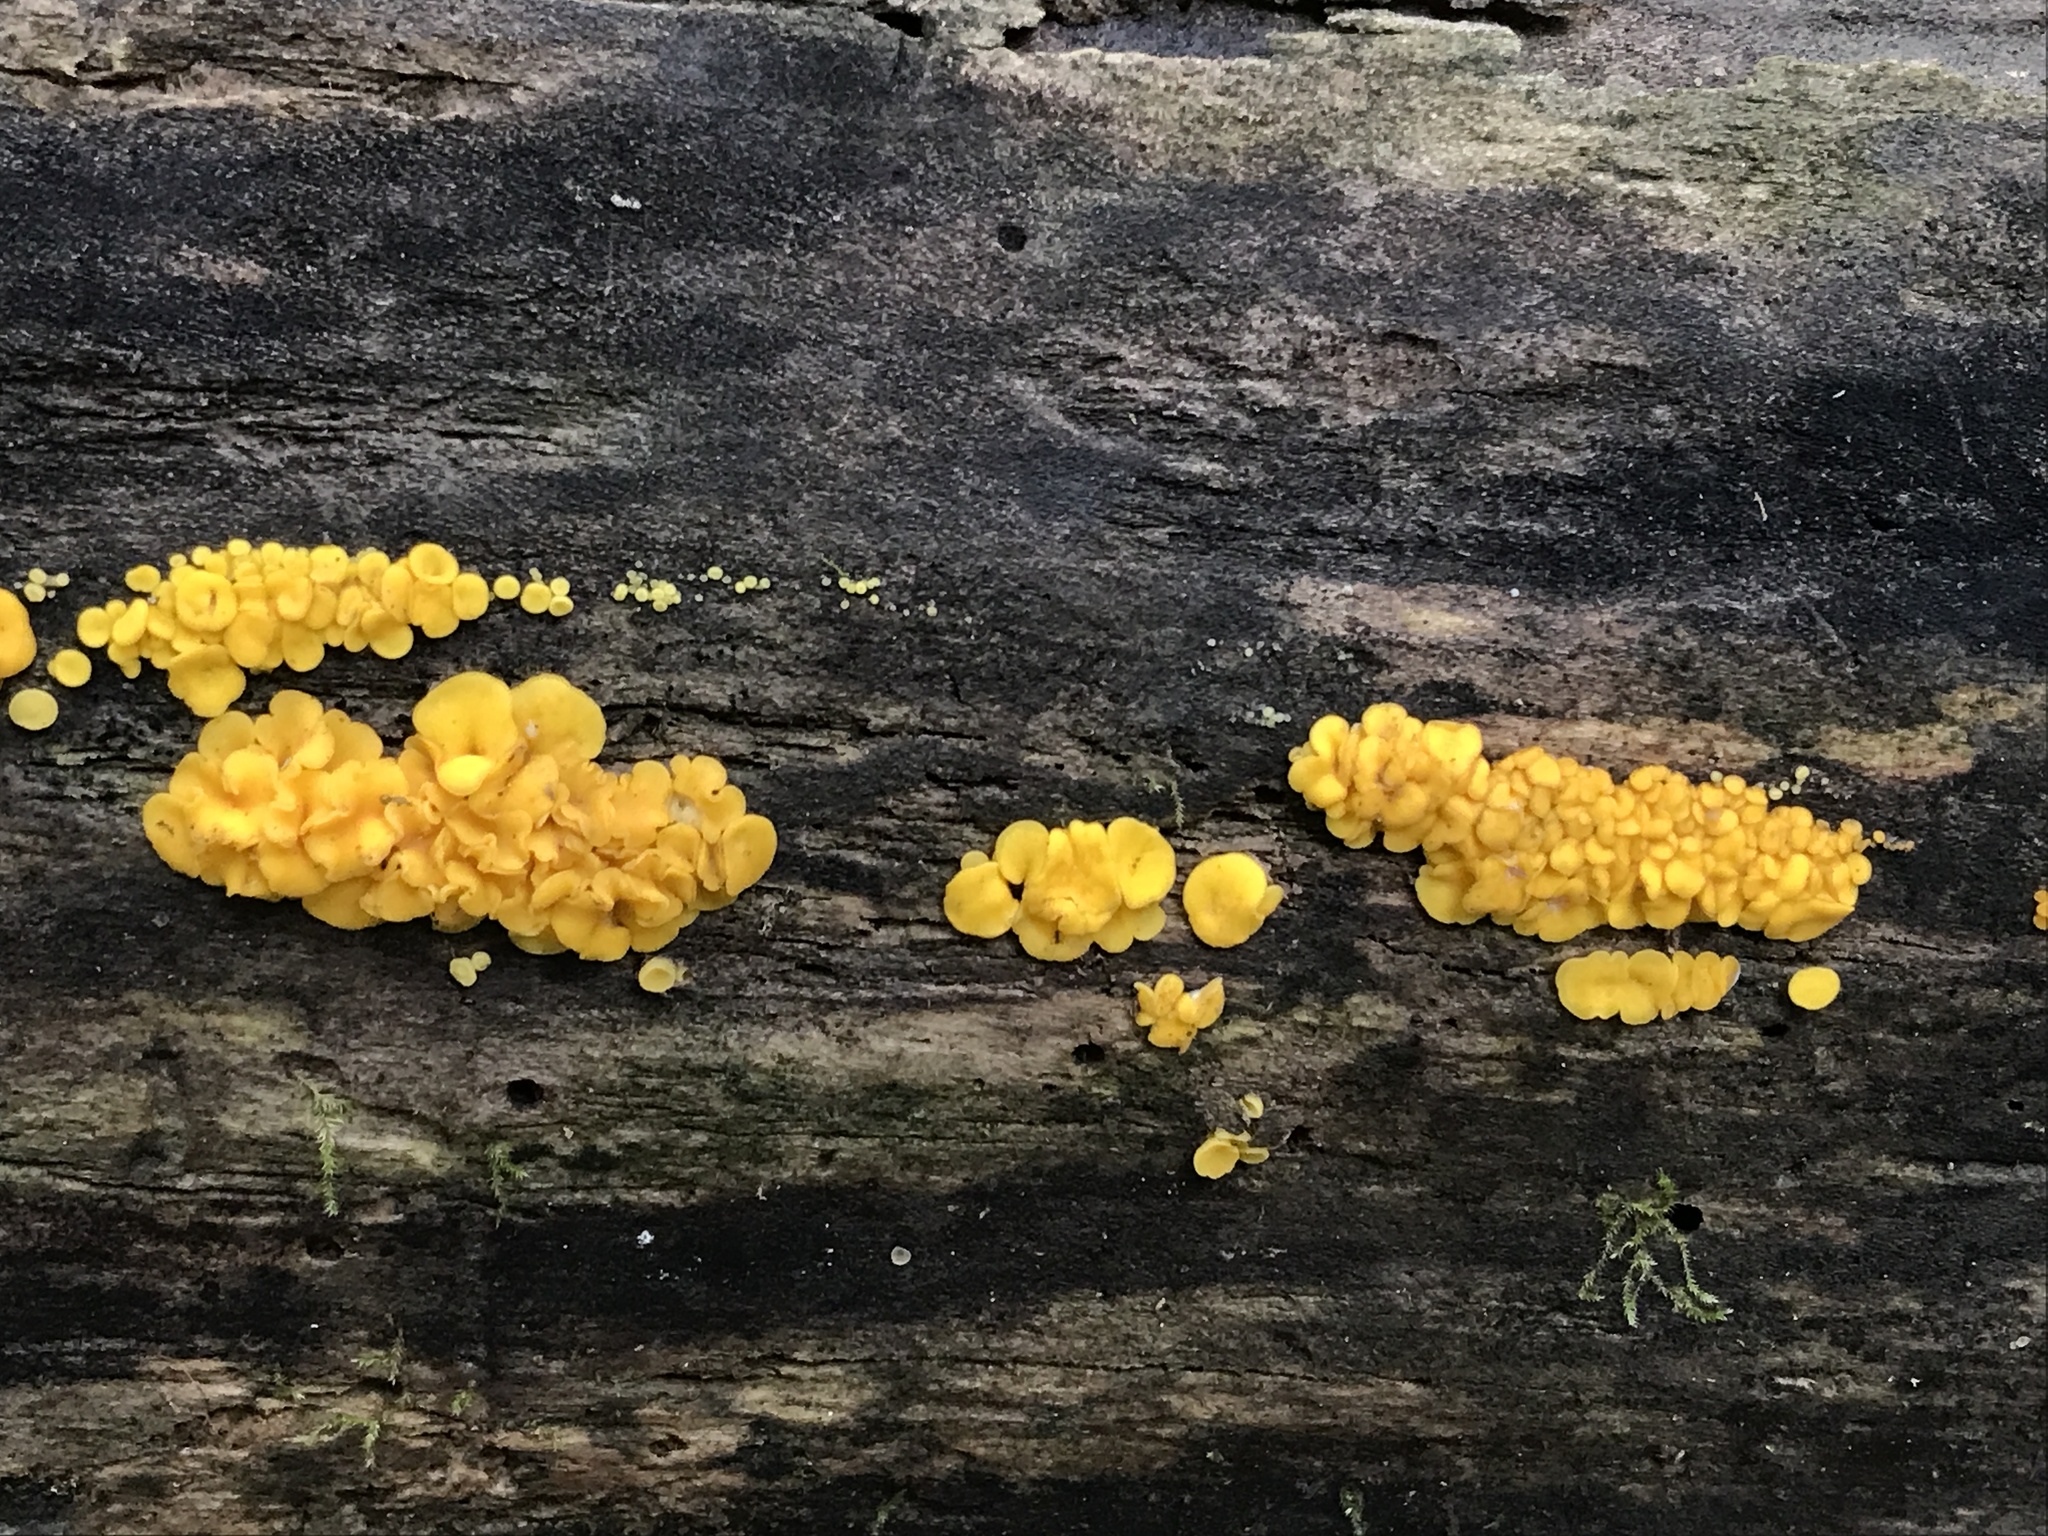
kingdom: Fungi
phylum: Ascomycota
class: Leotiomycetes
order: Helotiales
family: Pezizellaceae
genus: Calycina
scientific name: Calycina citrina
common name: Yellow fairy cups
